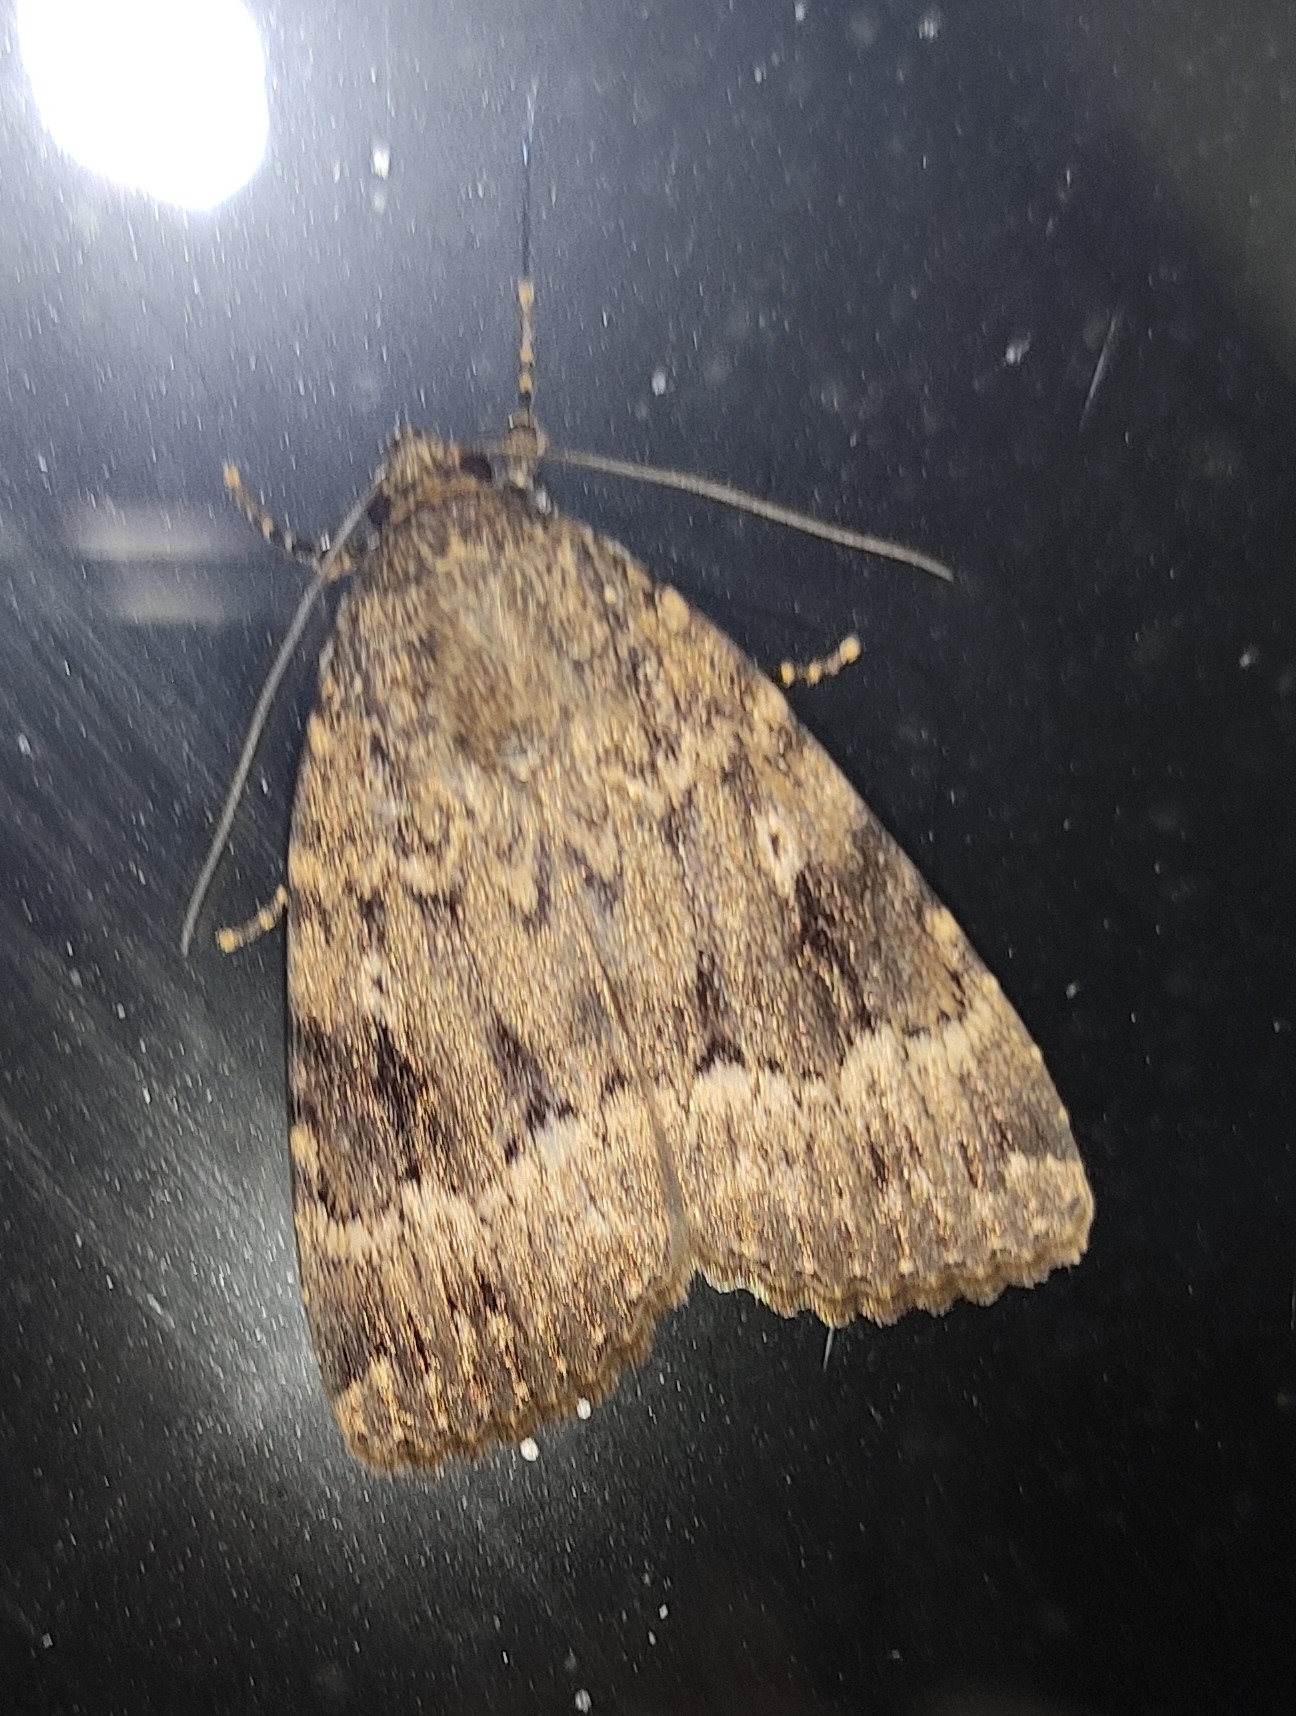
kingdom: Animalia
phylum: Arthropoda
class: Insecta
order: Lepidoptera
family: Noctuidae
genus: Amphipyra
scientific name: Amphipyra berbera
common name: Svensson's copper underwing
